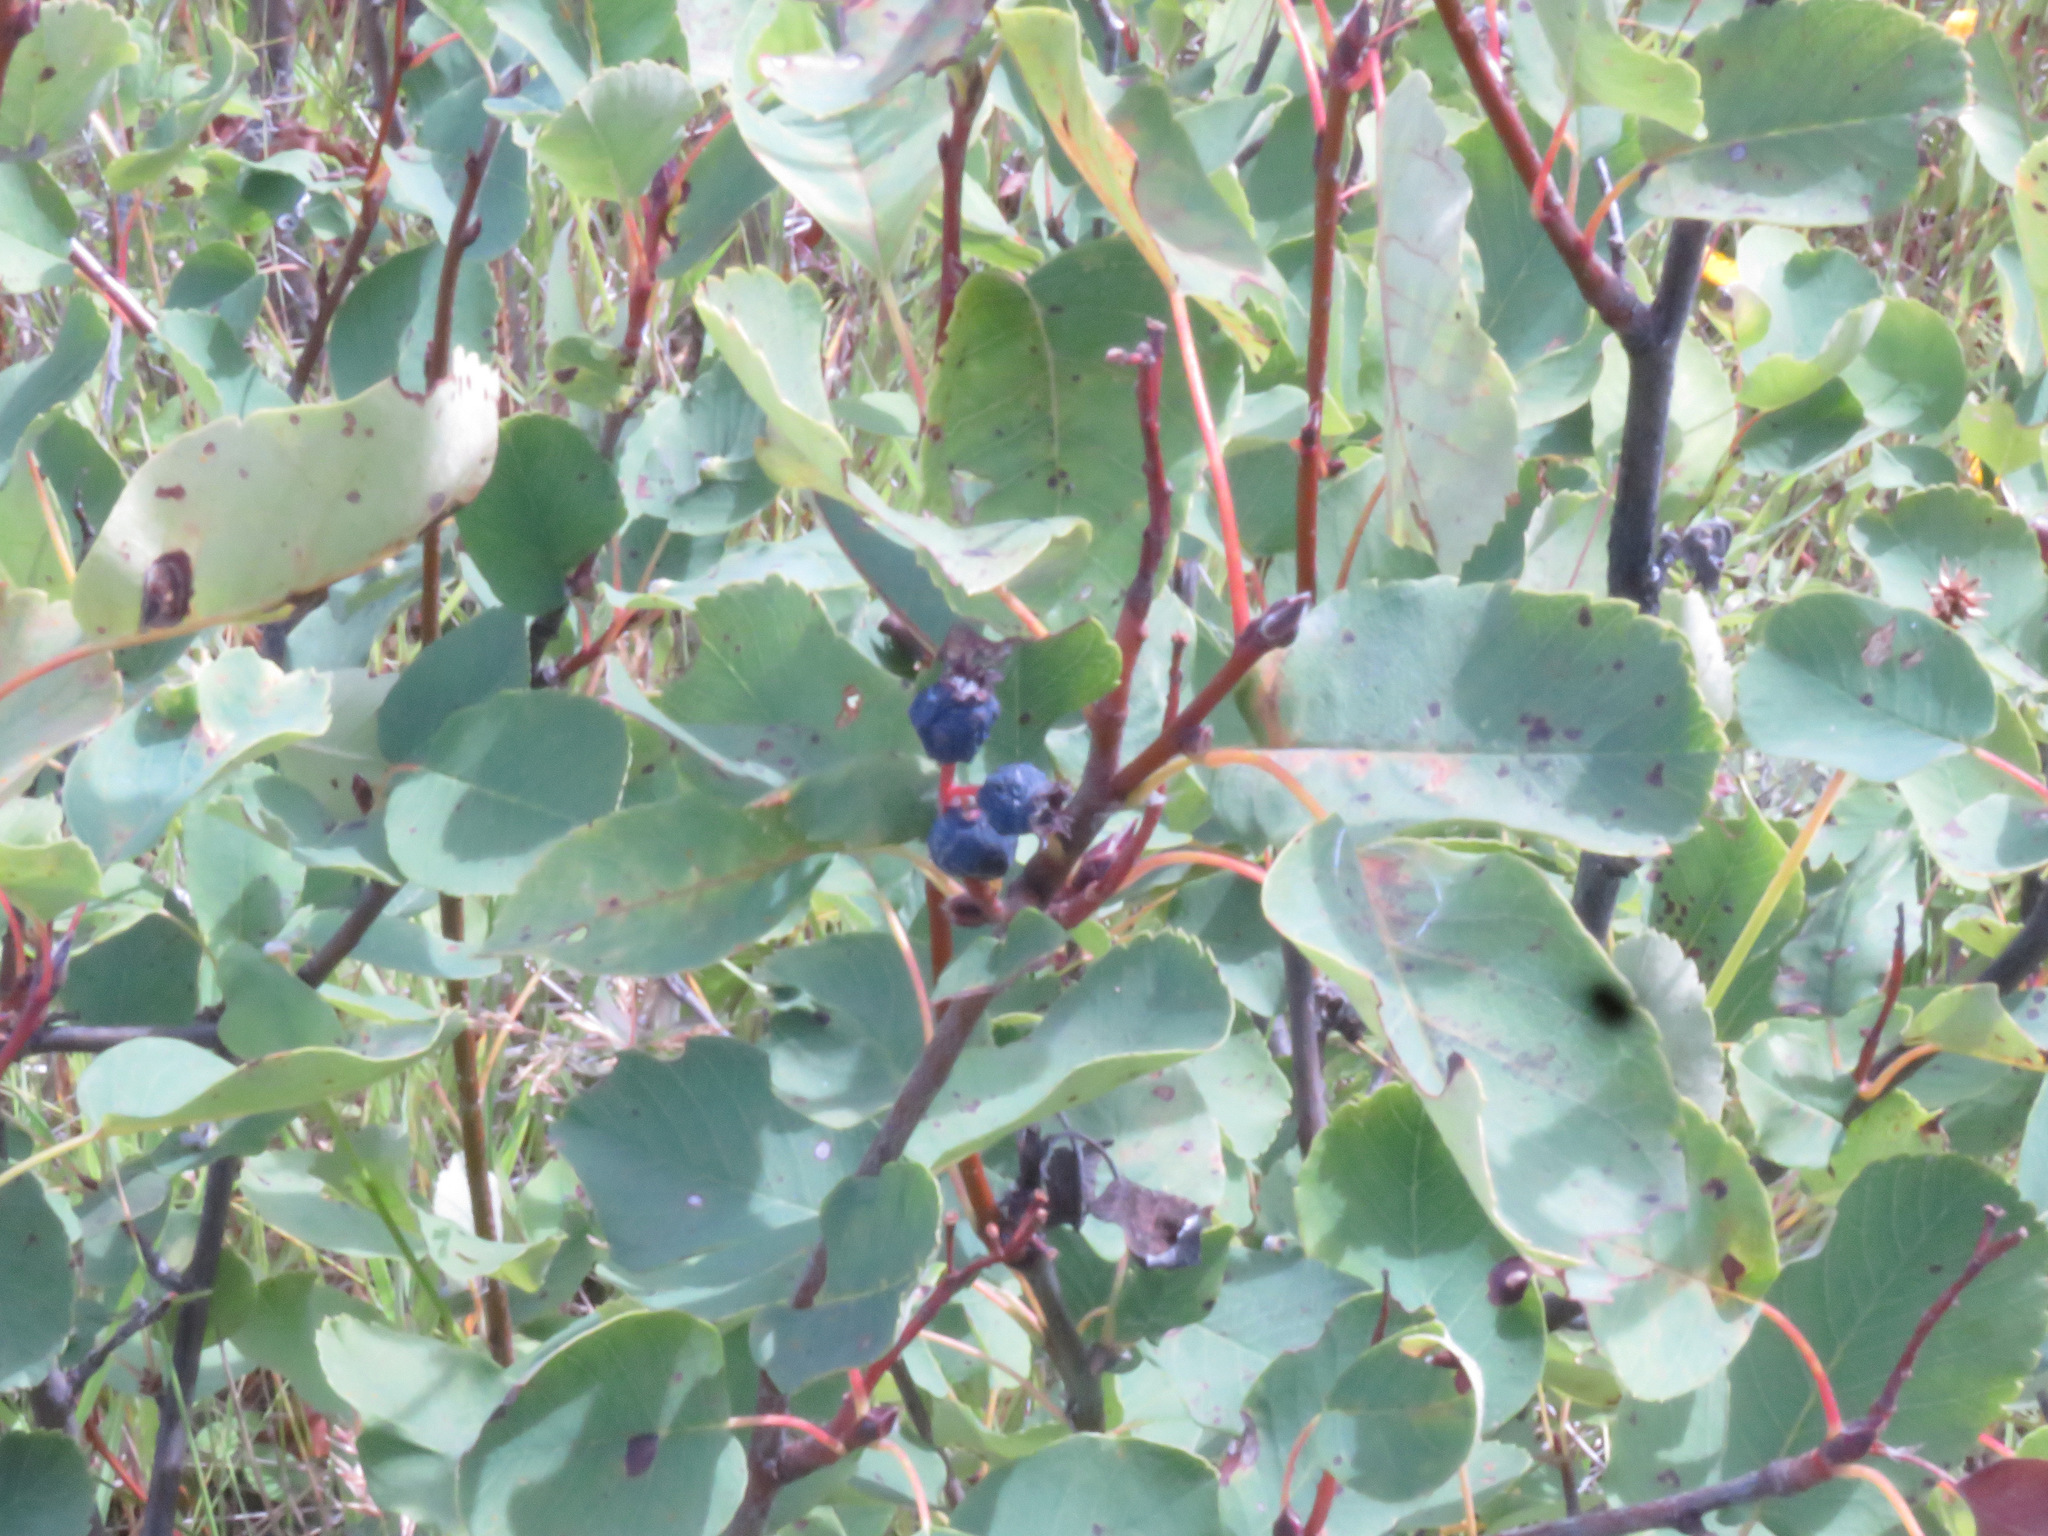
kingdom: Plantae
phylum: Tracheophyta
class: Magnoliopsida
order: Rosales
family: Rosaceae
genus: Amelanchier
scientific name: Amelanchier alnifolia
